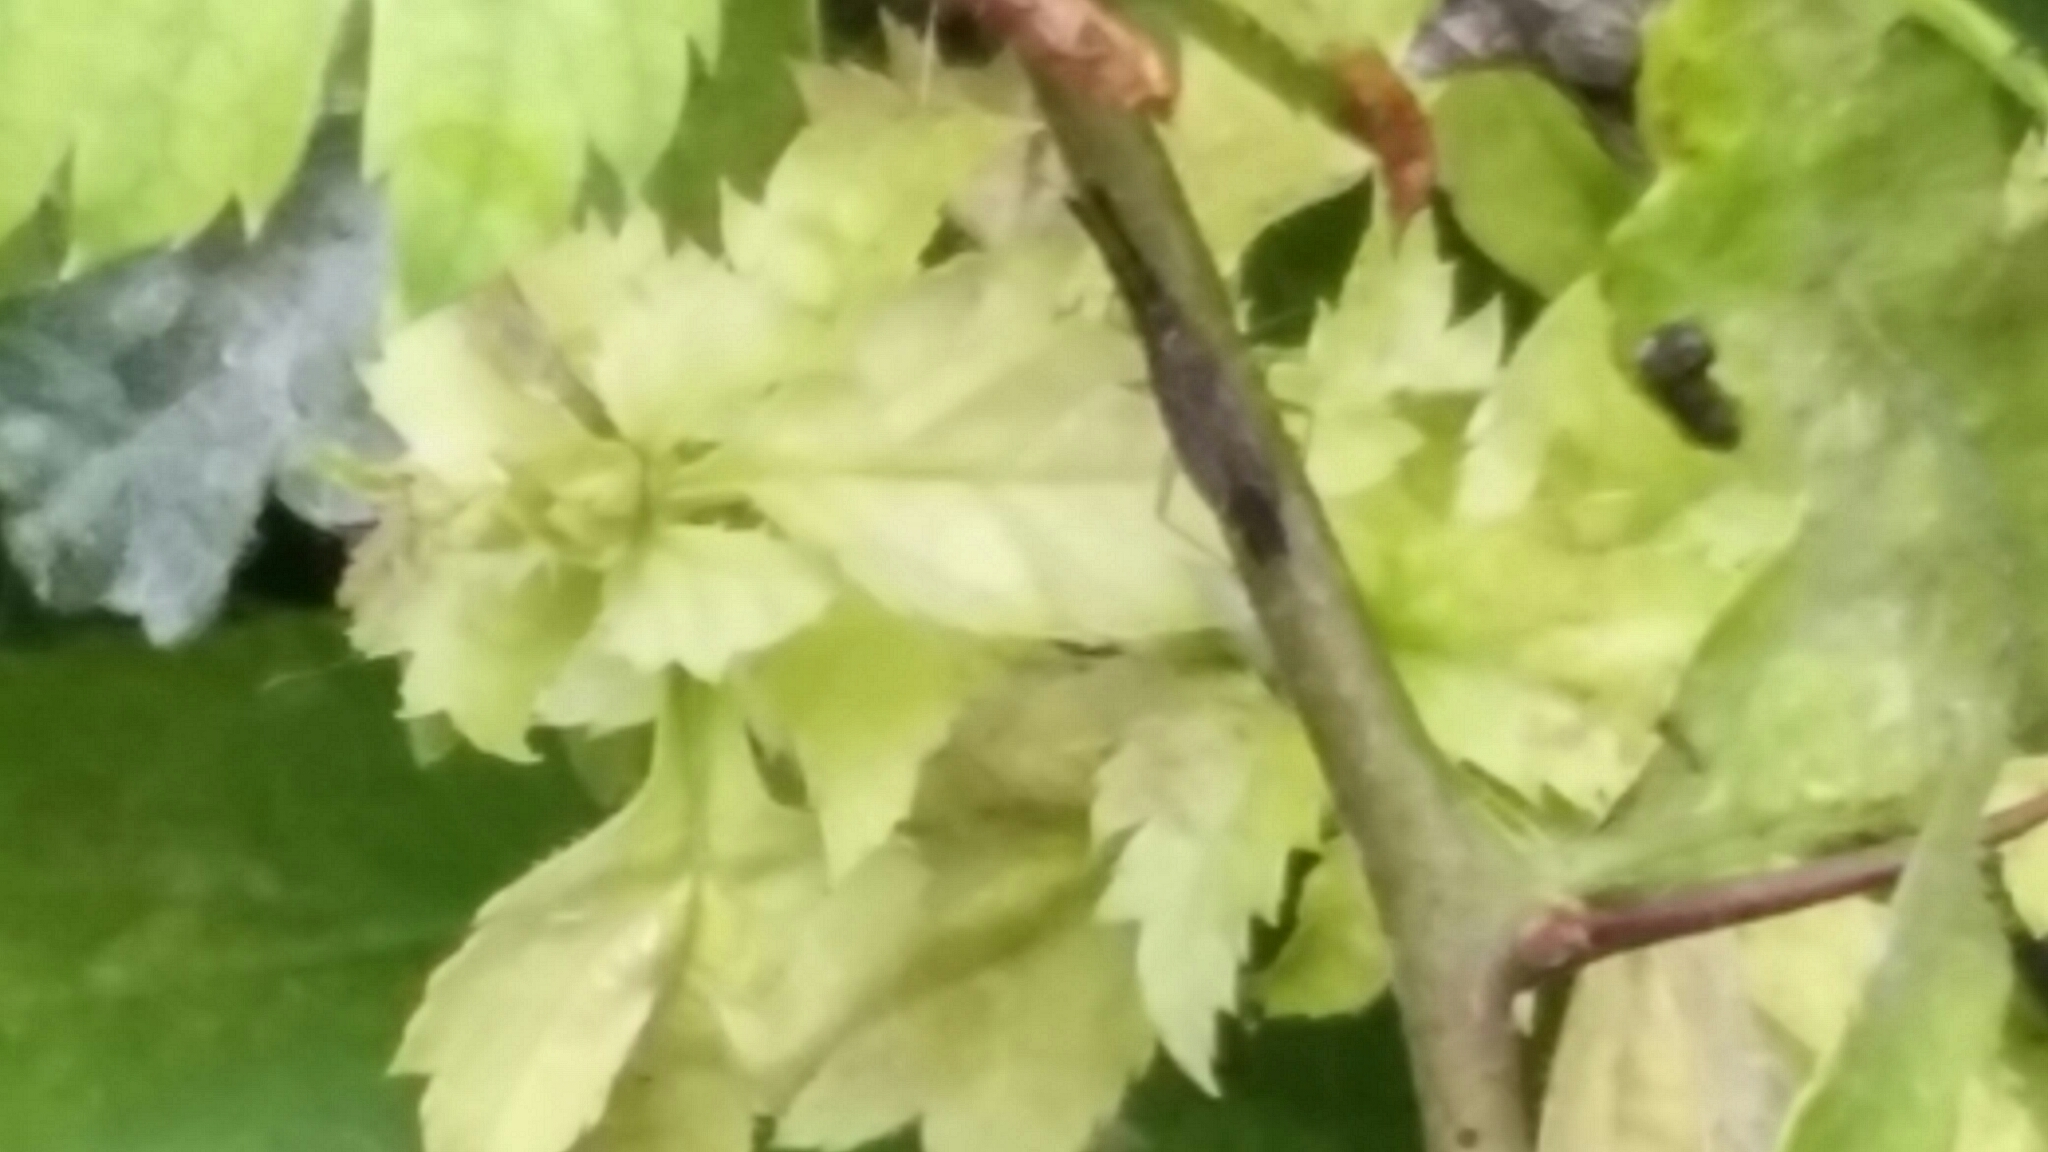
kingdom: Animalia
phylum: Arthropoda
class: Insecta
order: Hemiptera
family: Miridae
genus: Heterotoma
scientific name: Heterotoma planicornis
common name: Plant bug
